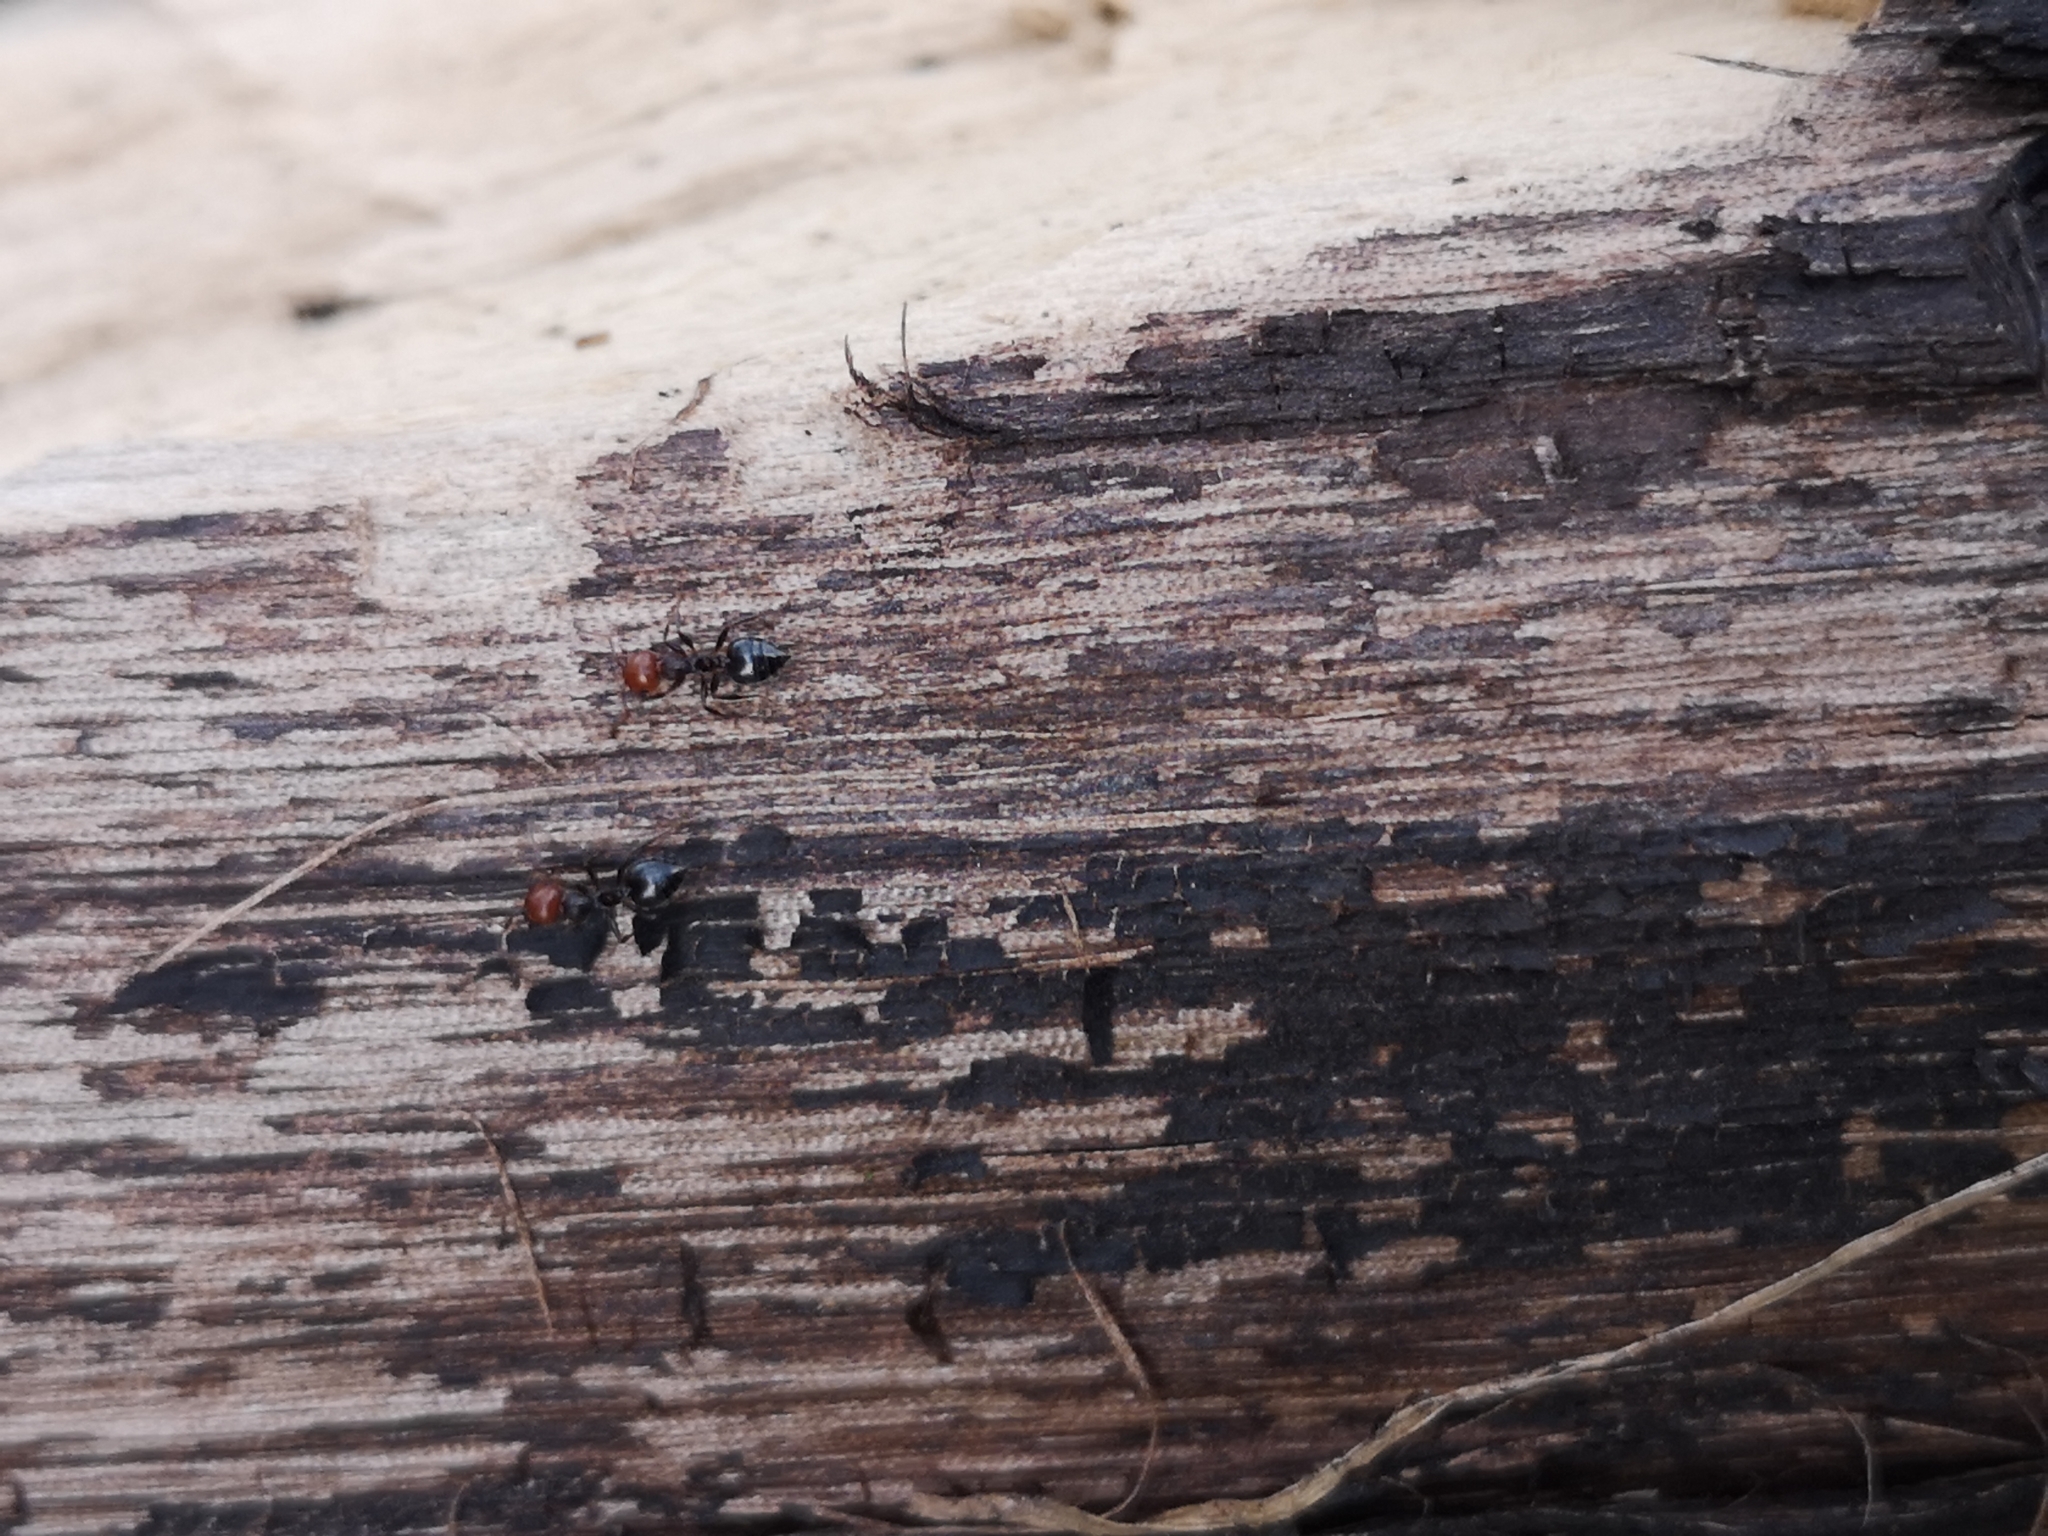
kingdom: Animalia
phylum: Arthropoda
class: Insecta
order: Hymenoptera
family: Formicidae
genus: Crematogaster
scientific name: Crematogaster scutellaris
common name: Fourmi du liège
